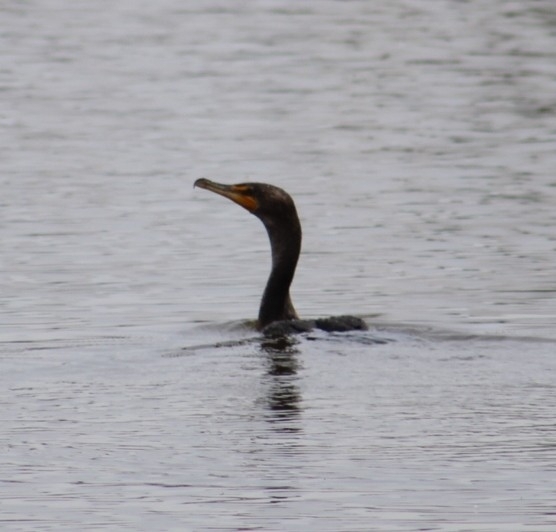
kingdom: Animalia
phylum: Chordata
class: Aves
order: Suliformes
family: Phalacrocoracidae
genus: Phalacrocorax
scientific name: Phalacrocorax auritus
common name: Double-crested cormorant
